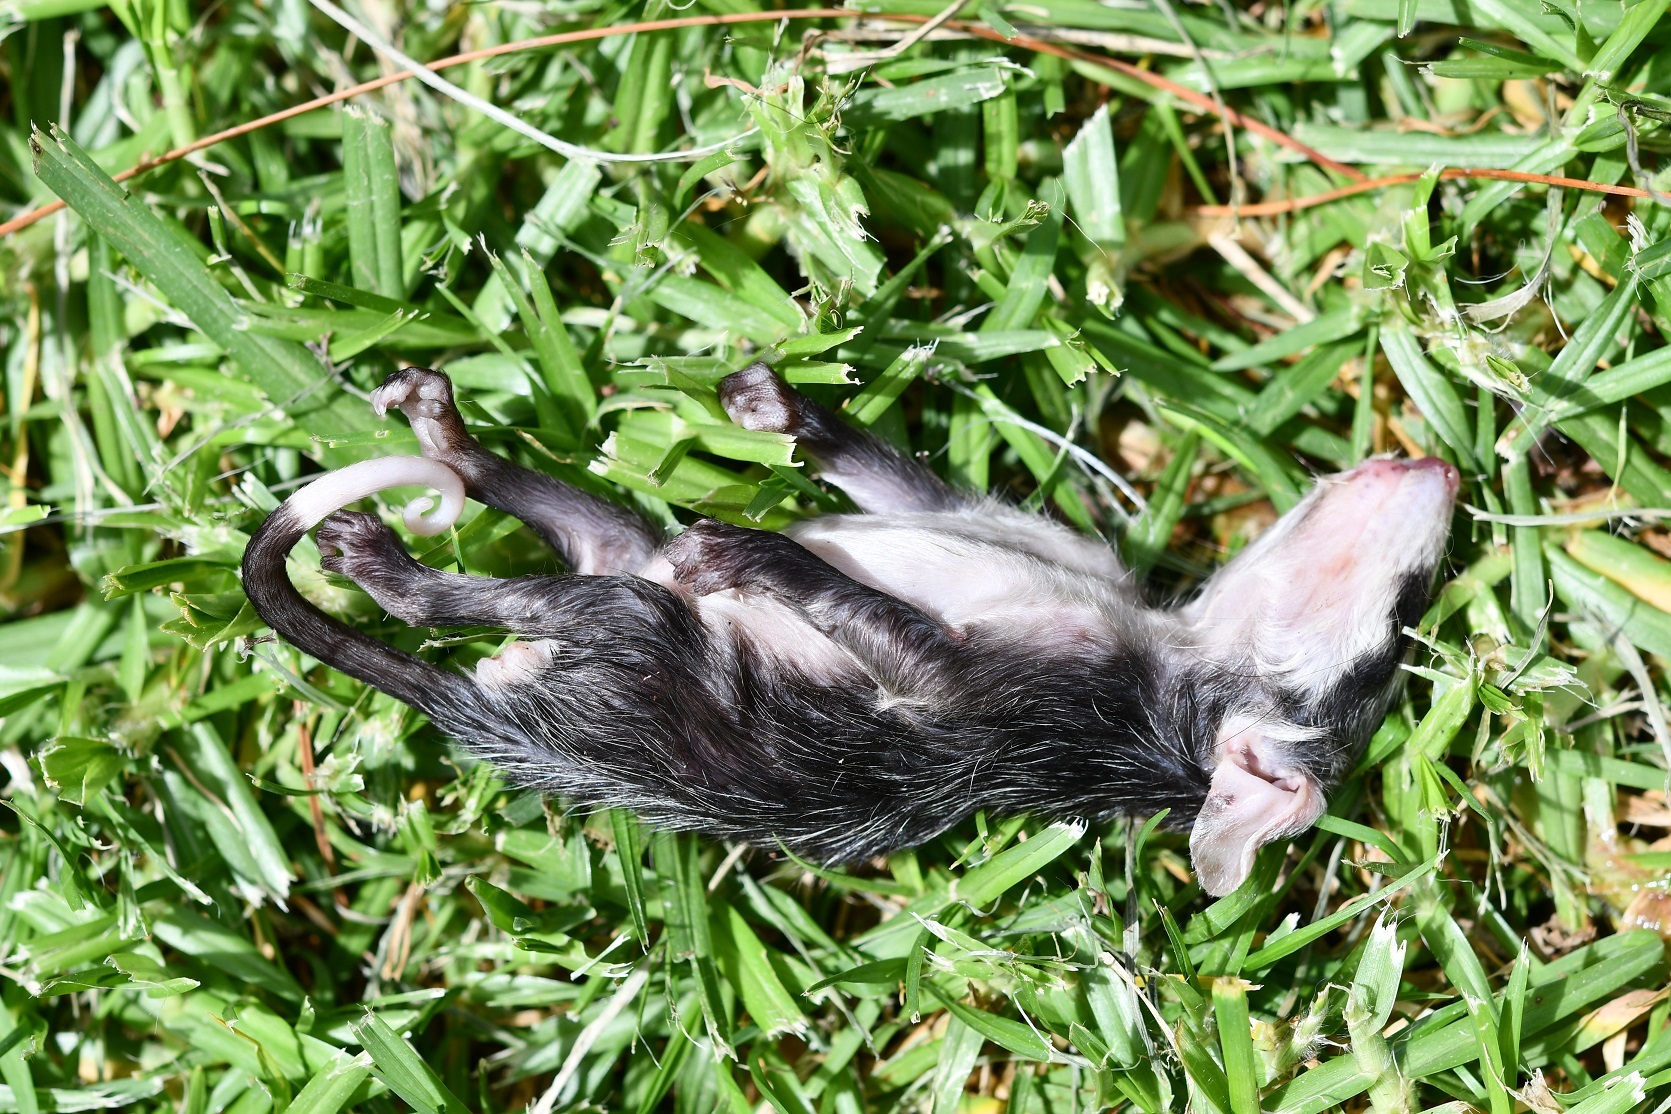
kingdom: Animalia
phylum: Chordata
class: Mammalia
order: Didelphimorphia
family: Didelphidae
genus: Didelphis
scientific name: Didelphis
